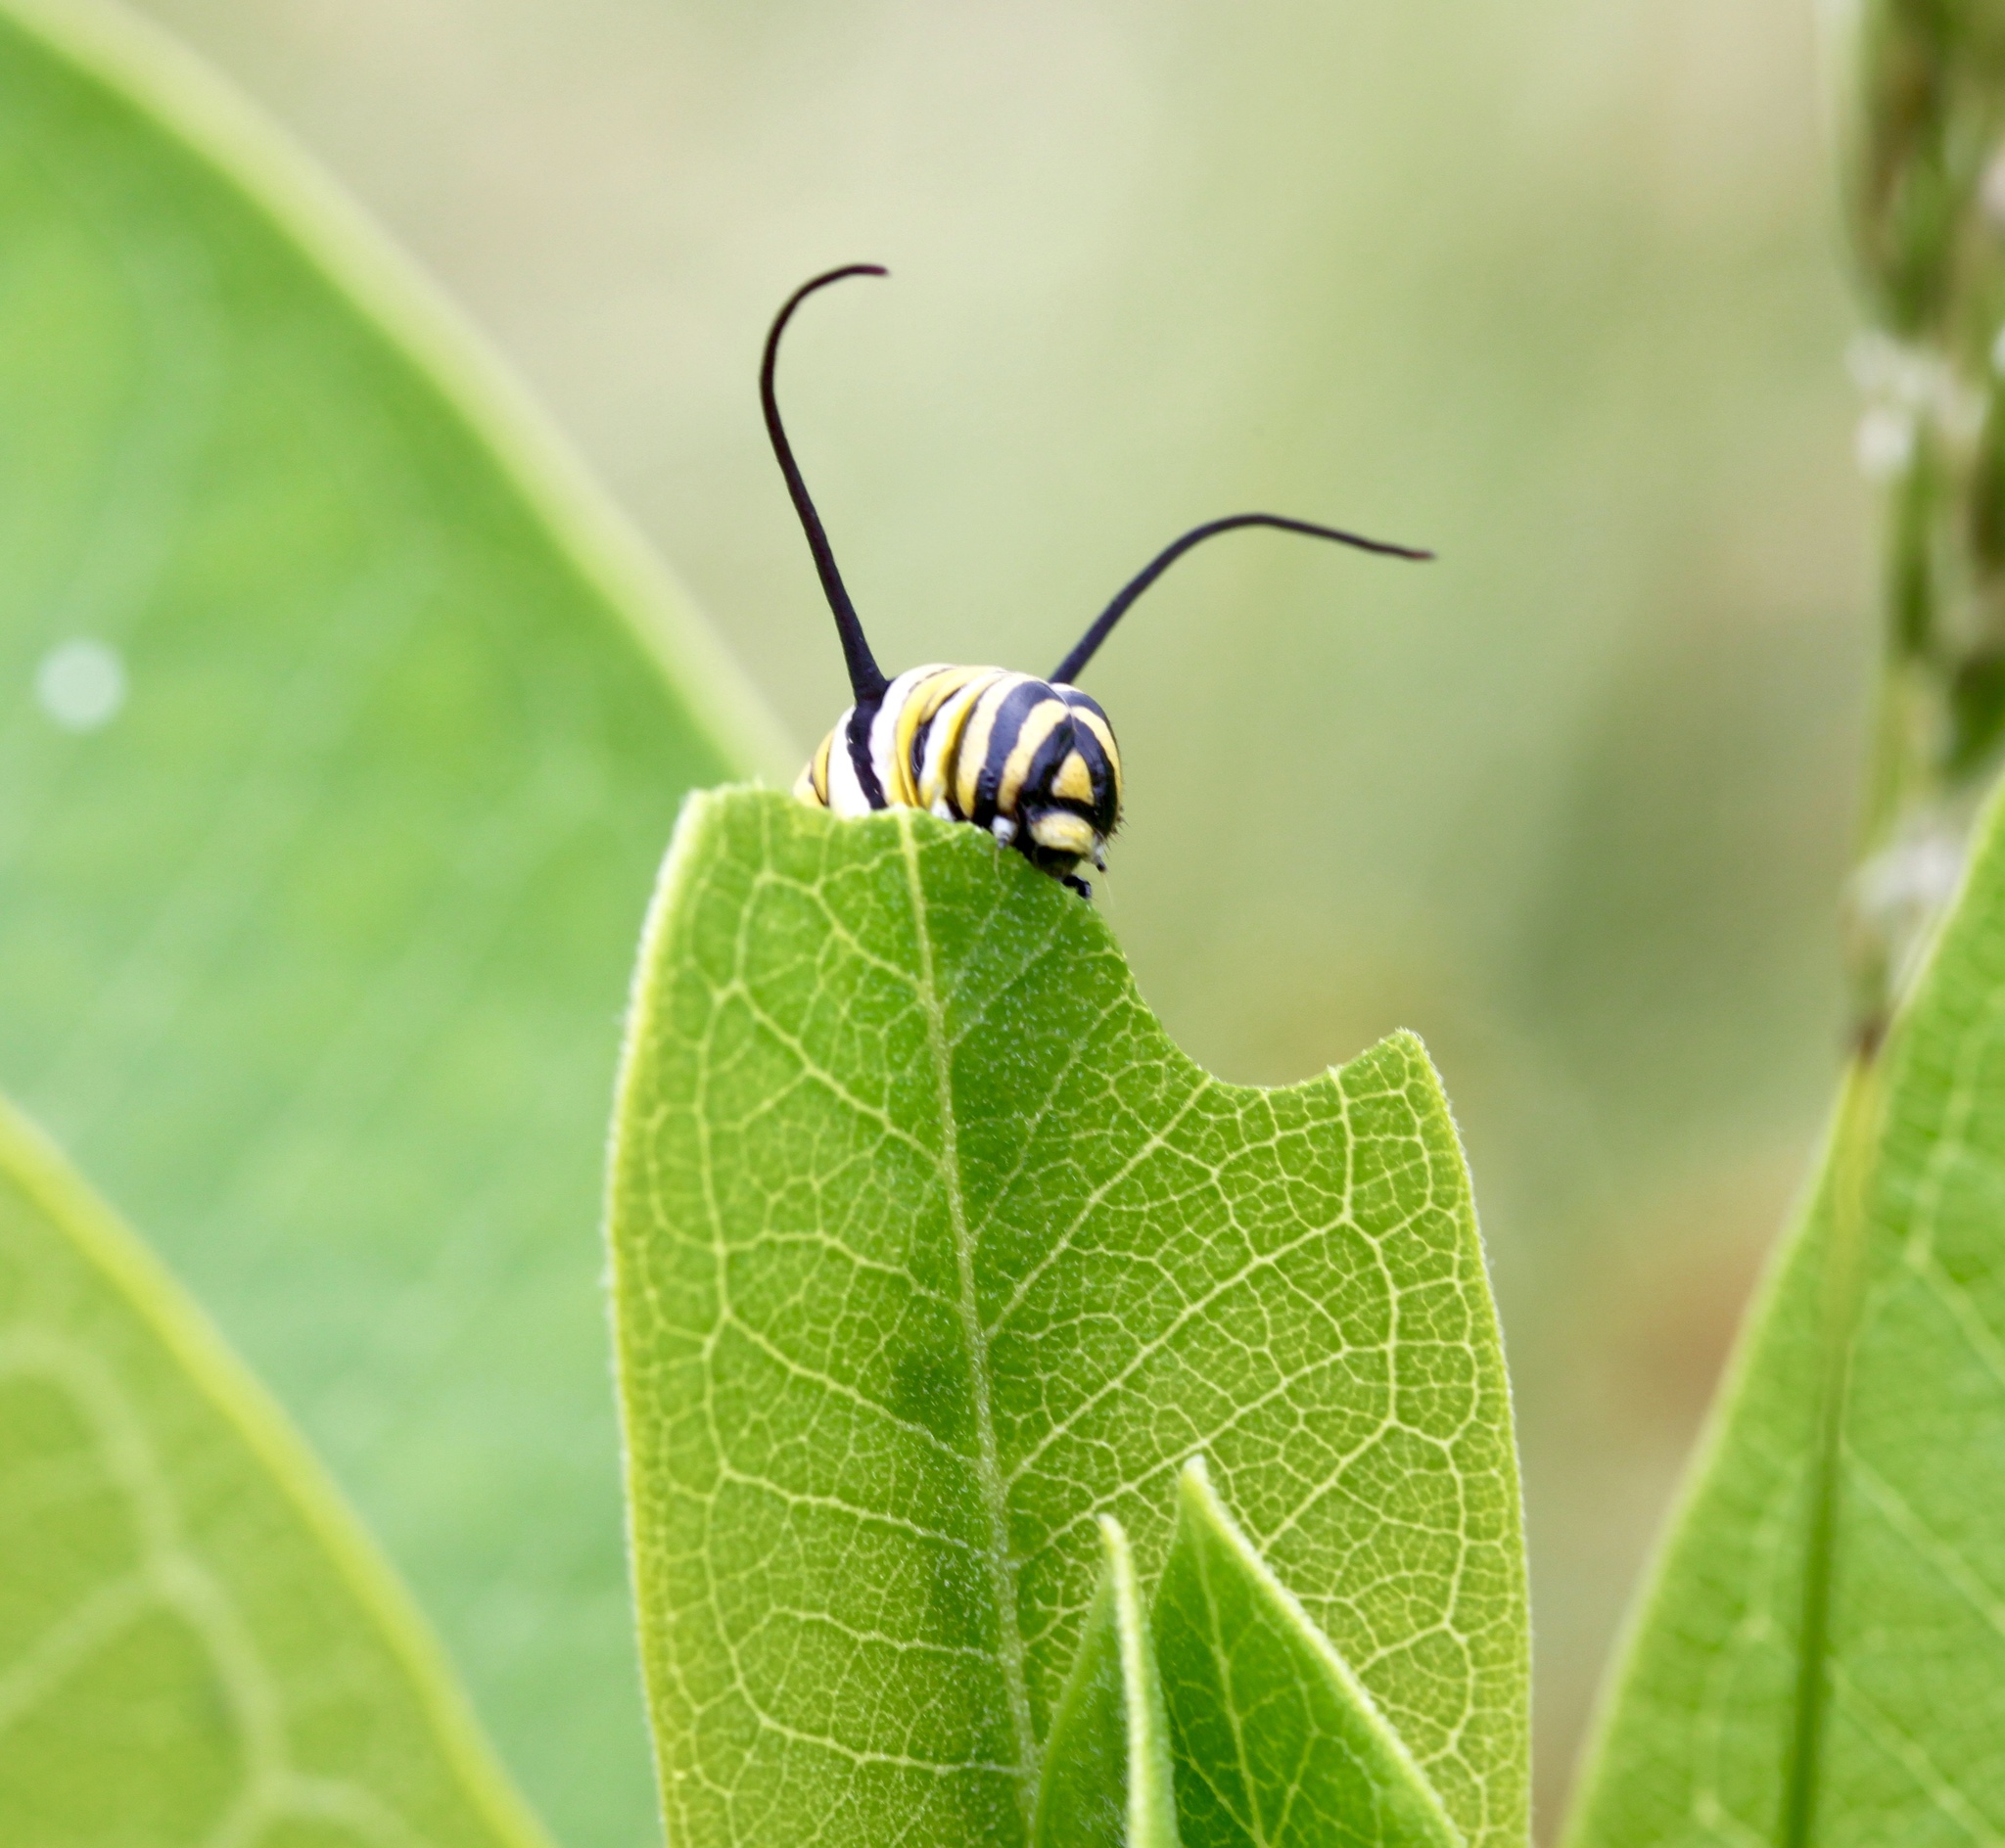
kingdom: Animalia
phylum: Arthropoda
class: Insecta
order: Lepidoptera
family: Nymphalidae
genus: Danaus
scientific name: Danaus plexippus
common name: Monarch
